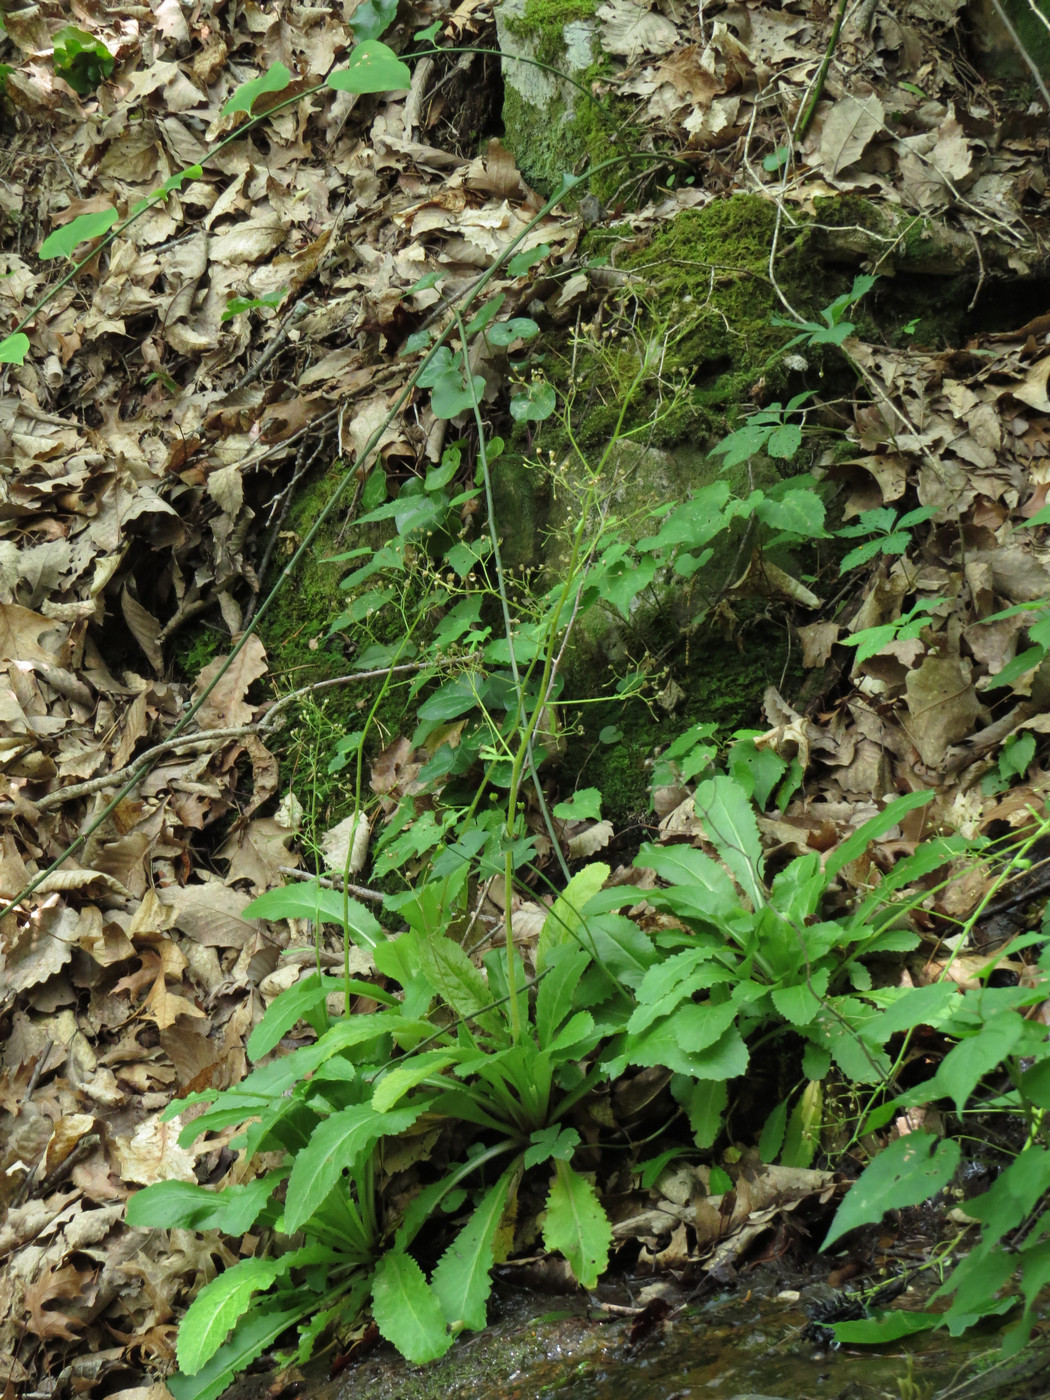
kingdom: Plantae
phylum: Tracheophyta
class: Magnoliopsida
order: Saxifragales
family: Saxifragaceae
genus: Micranthes
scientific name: Micranthes micranthidifolia
